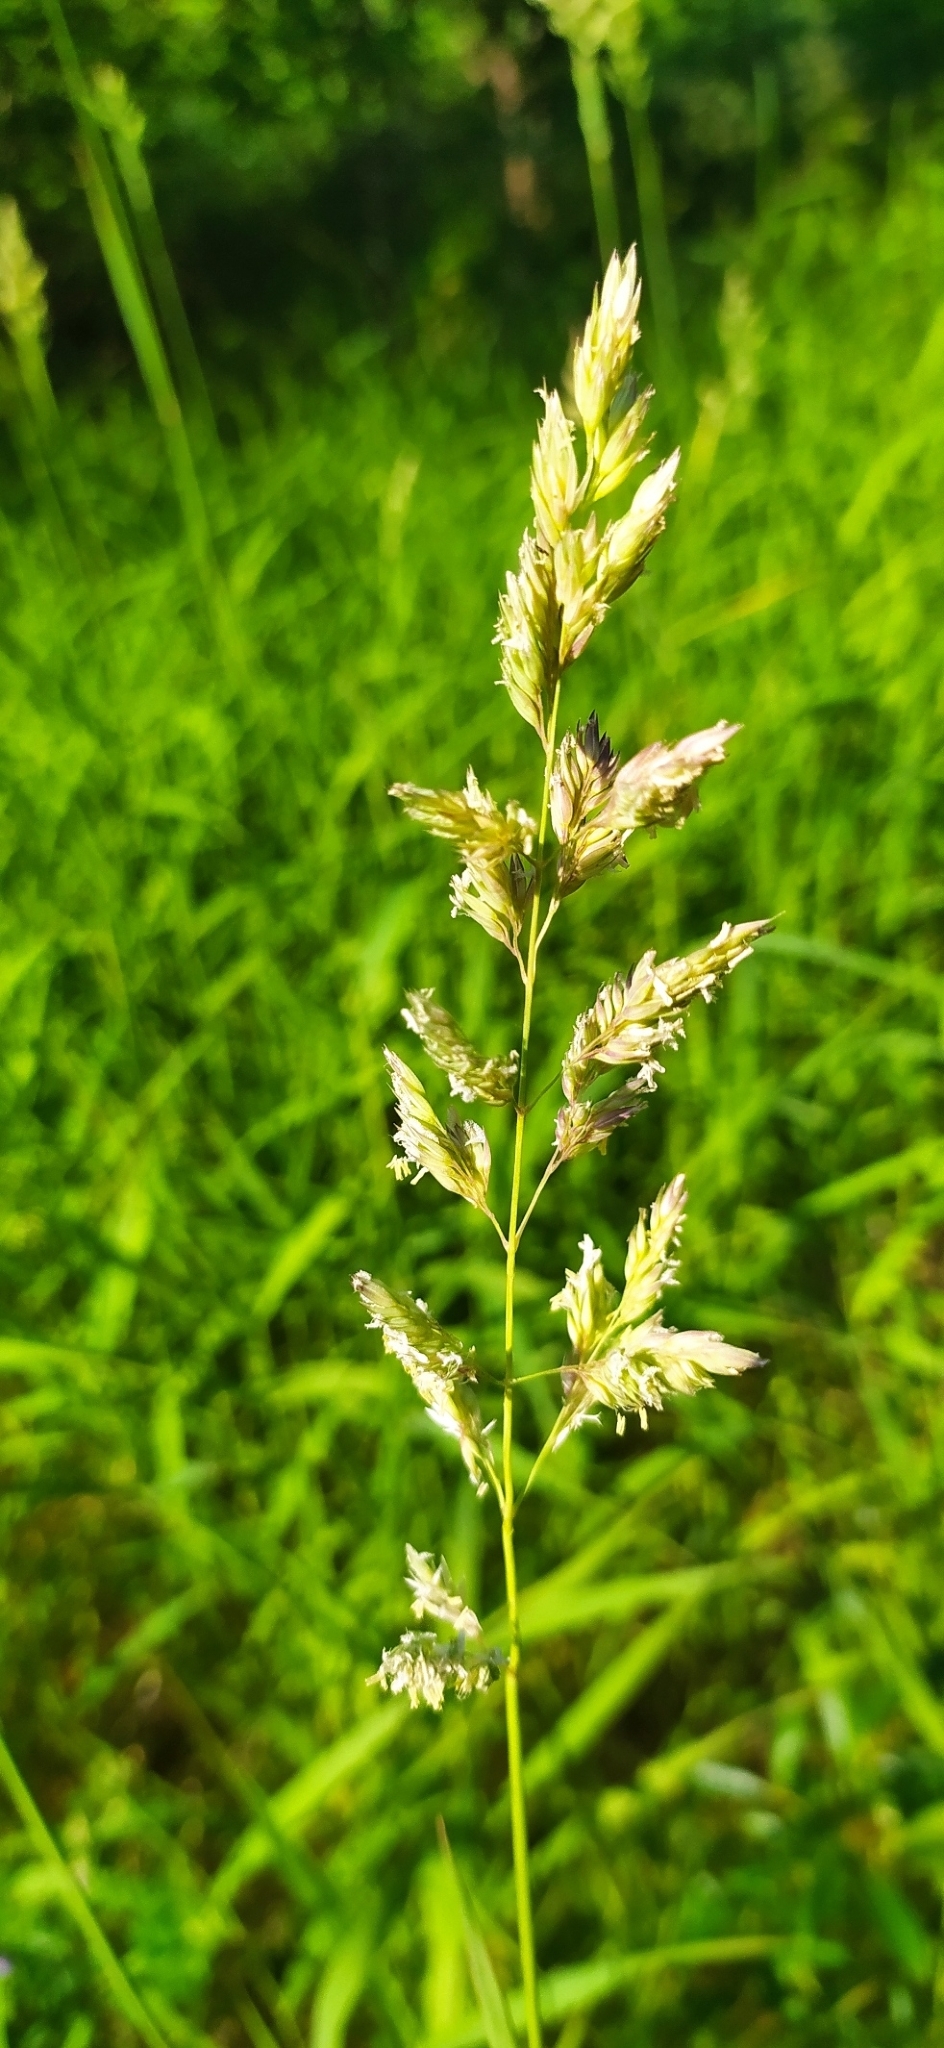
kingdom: Plantae
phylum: Tracheophyta
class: Liliopsida
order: Poales
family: Poaceae
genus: Phalaris
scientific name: Phalaris arundinacea
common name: Reed canary-grass
